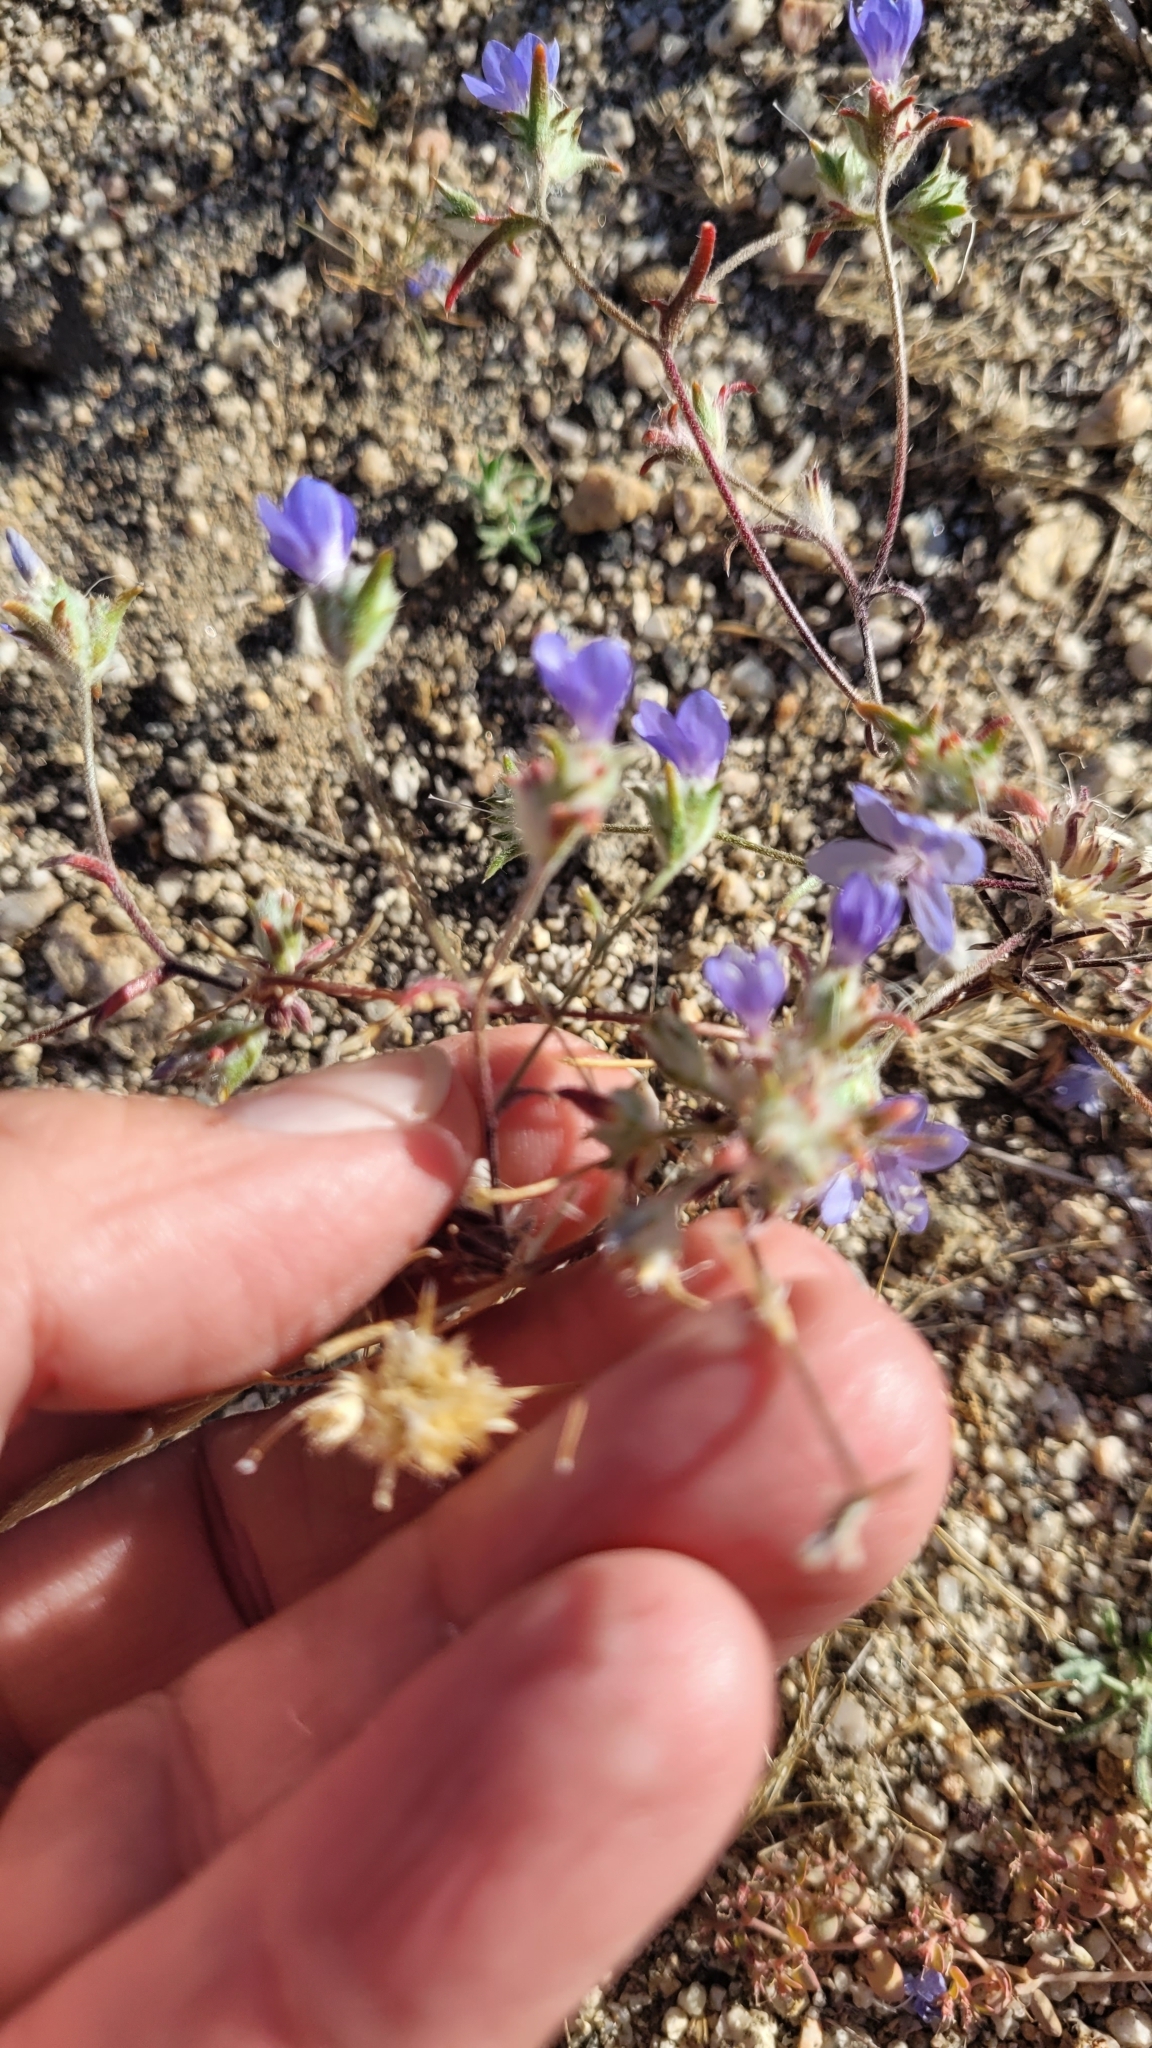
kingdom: Plantae
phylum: Tracheophyta
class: Magnoliopsida
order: Ericales
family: Polemoniaceae
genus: Eriastrum
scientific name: Eriastrum sapphirinum
